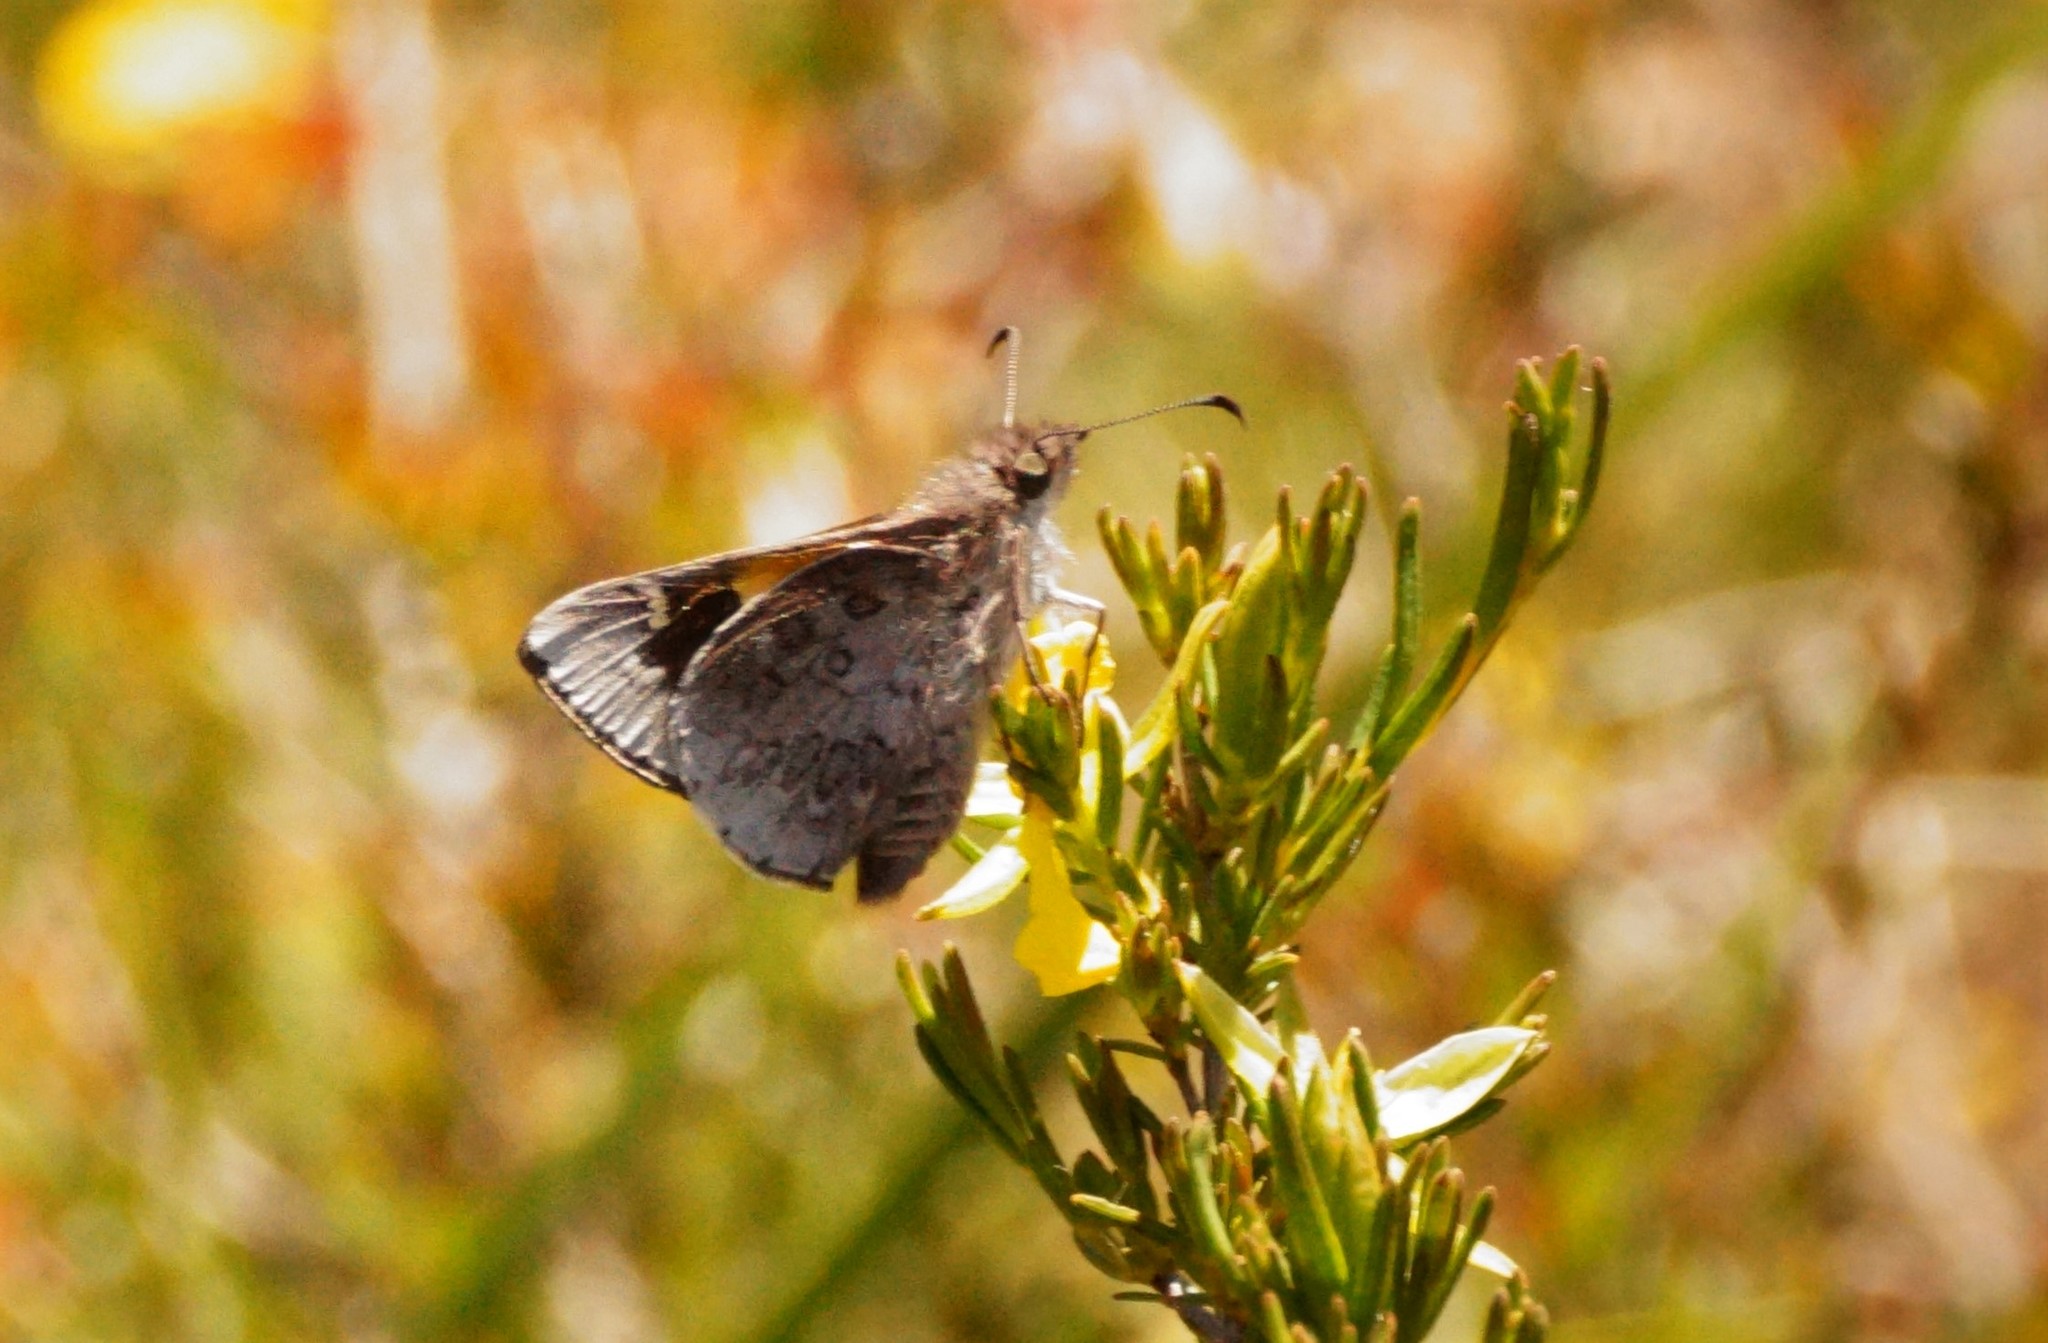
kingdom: Animalia
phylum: Arthropoda
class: Insecta
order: Lepidoptera
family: Hesperiidae
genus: Antipodia
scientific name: Antipodia chaostola
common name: Antipodia skipper
